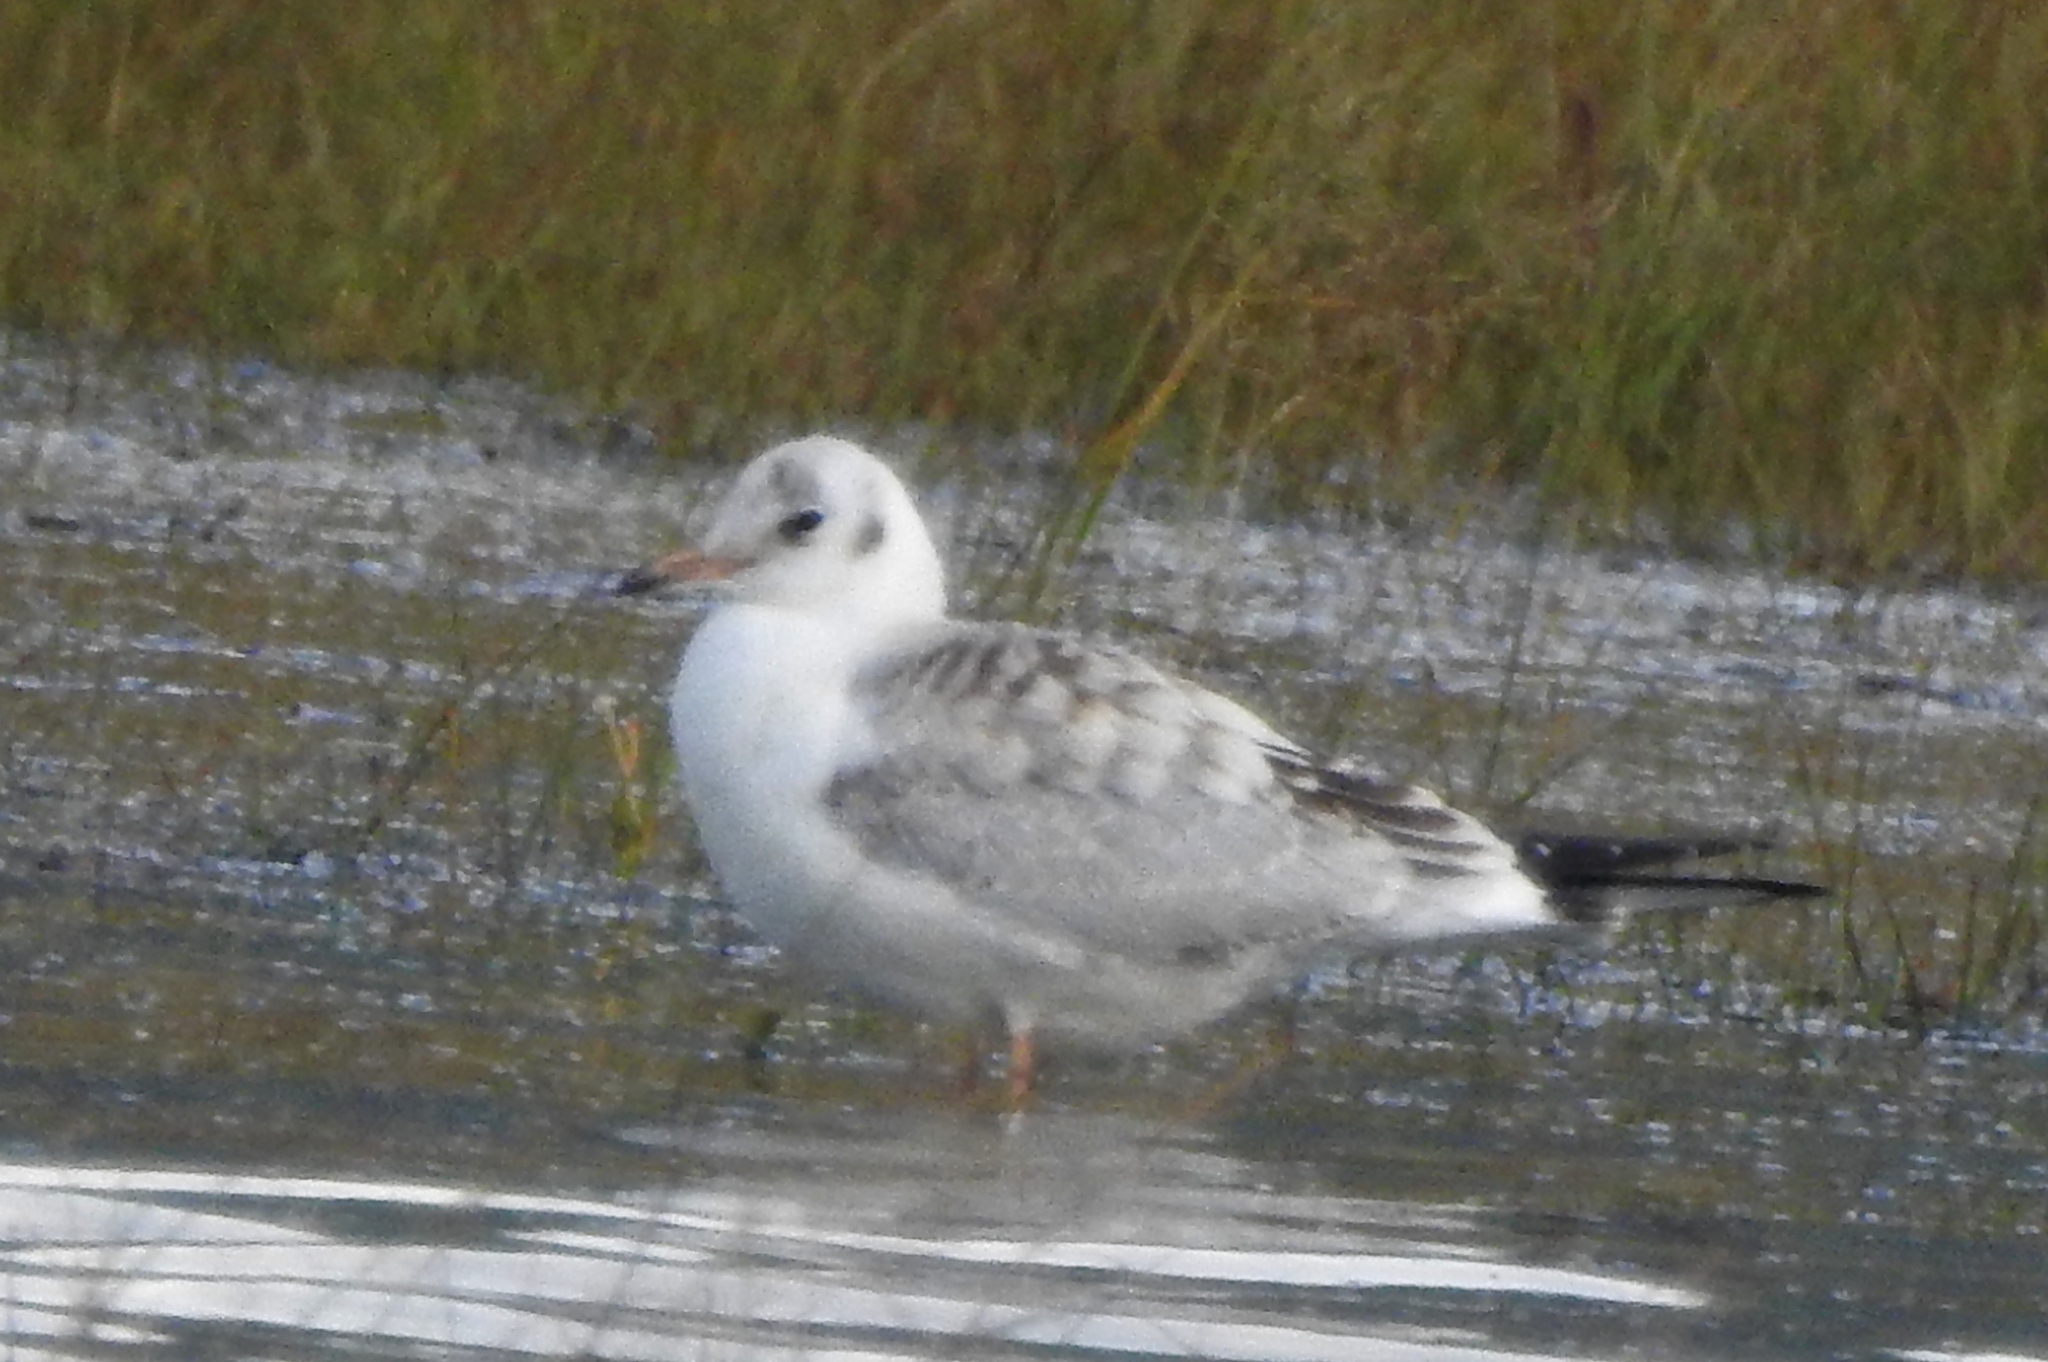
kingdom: Animalia
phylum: Chordata
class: Aves
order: Charadriiformes
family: Laridae
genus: Chroicocephalus
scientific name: Chroicocephalus ridibundus
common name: Black-headed gull
